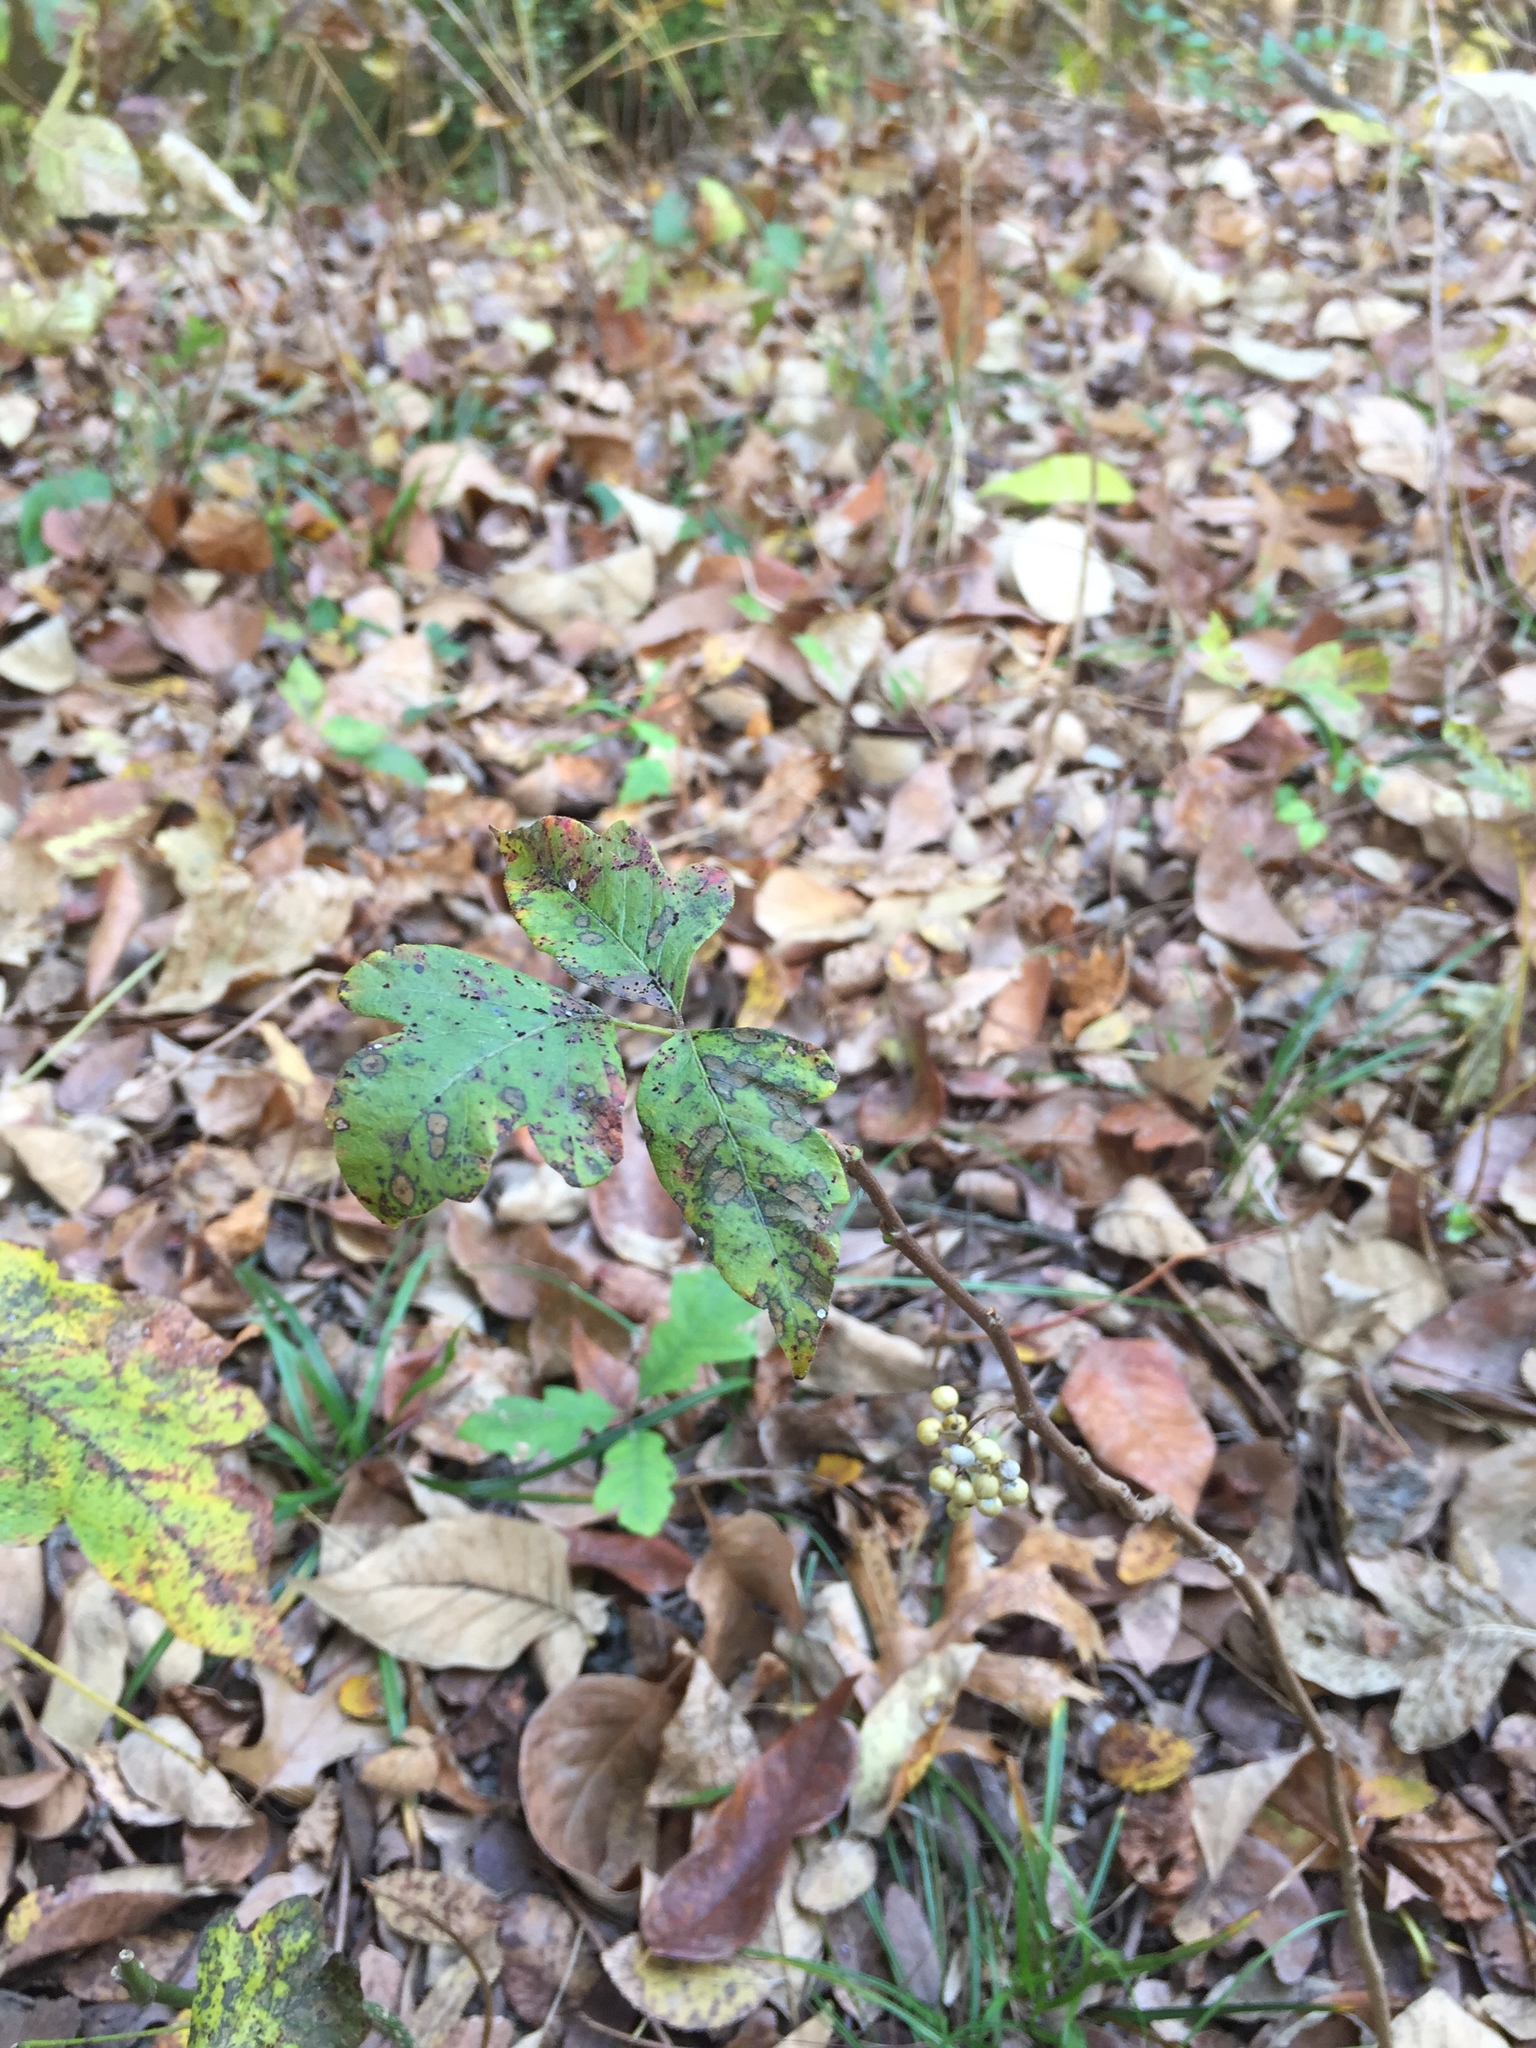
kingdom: Plantae
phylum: Tracheophyta
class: Magnoliopsida
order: Sapindales
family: Anacardiaceae
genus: Toxicodendron
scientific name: Toxicodendron radicans
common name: Poison ivy
